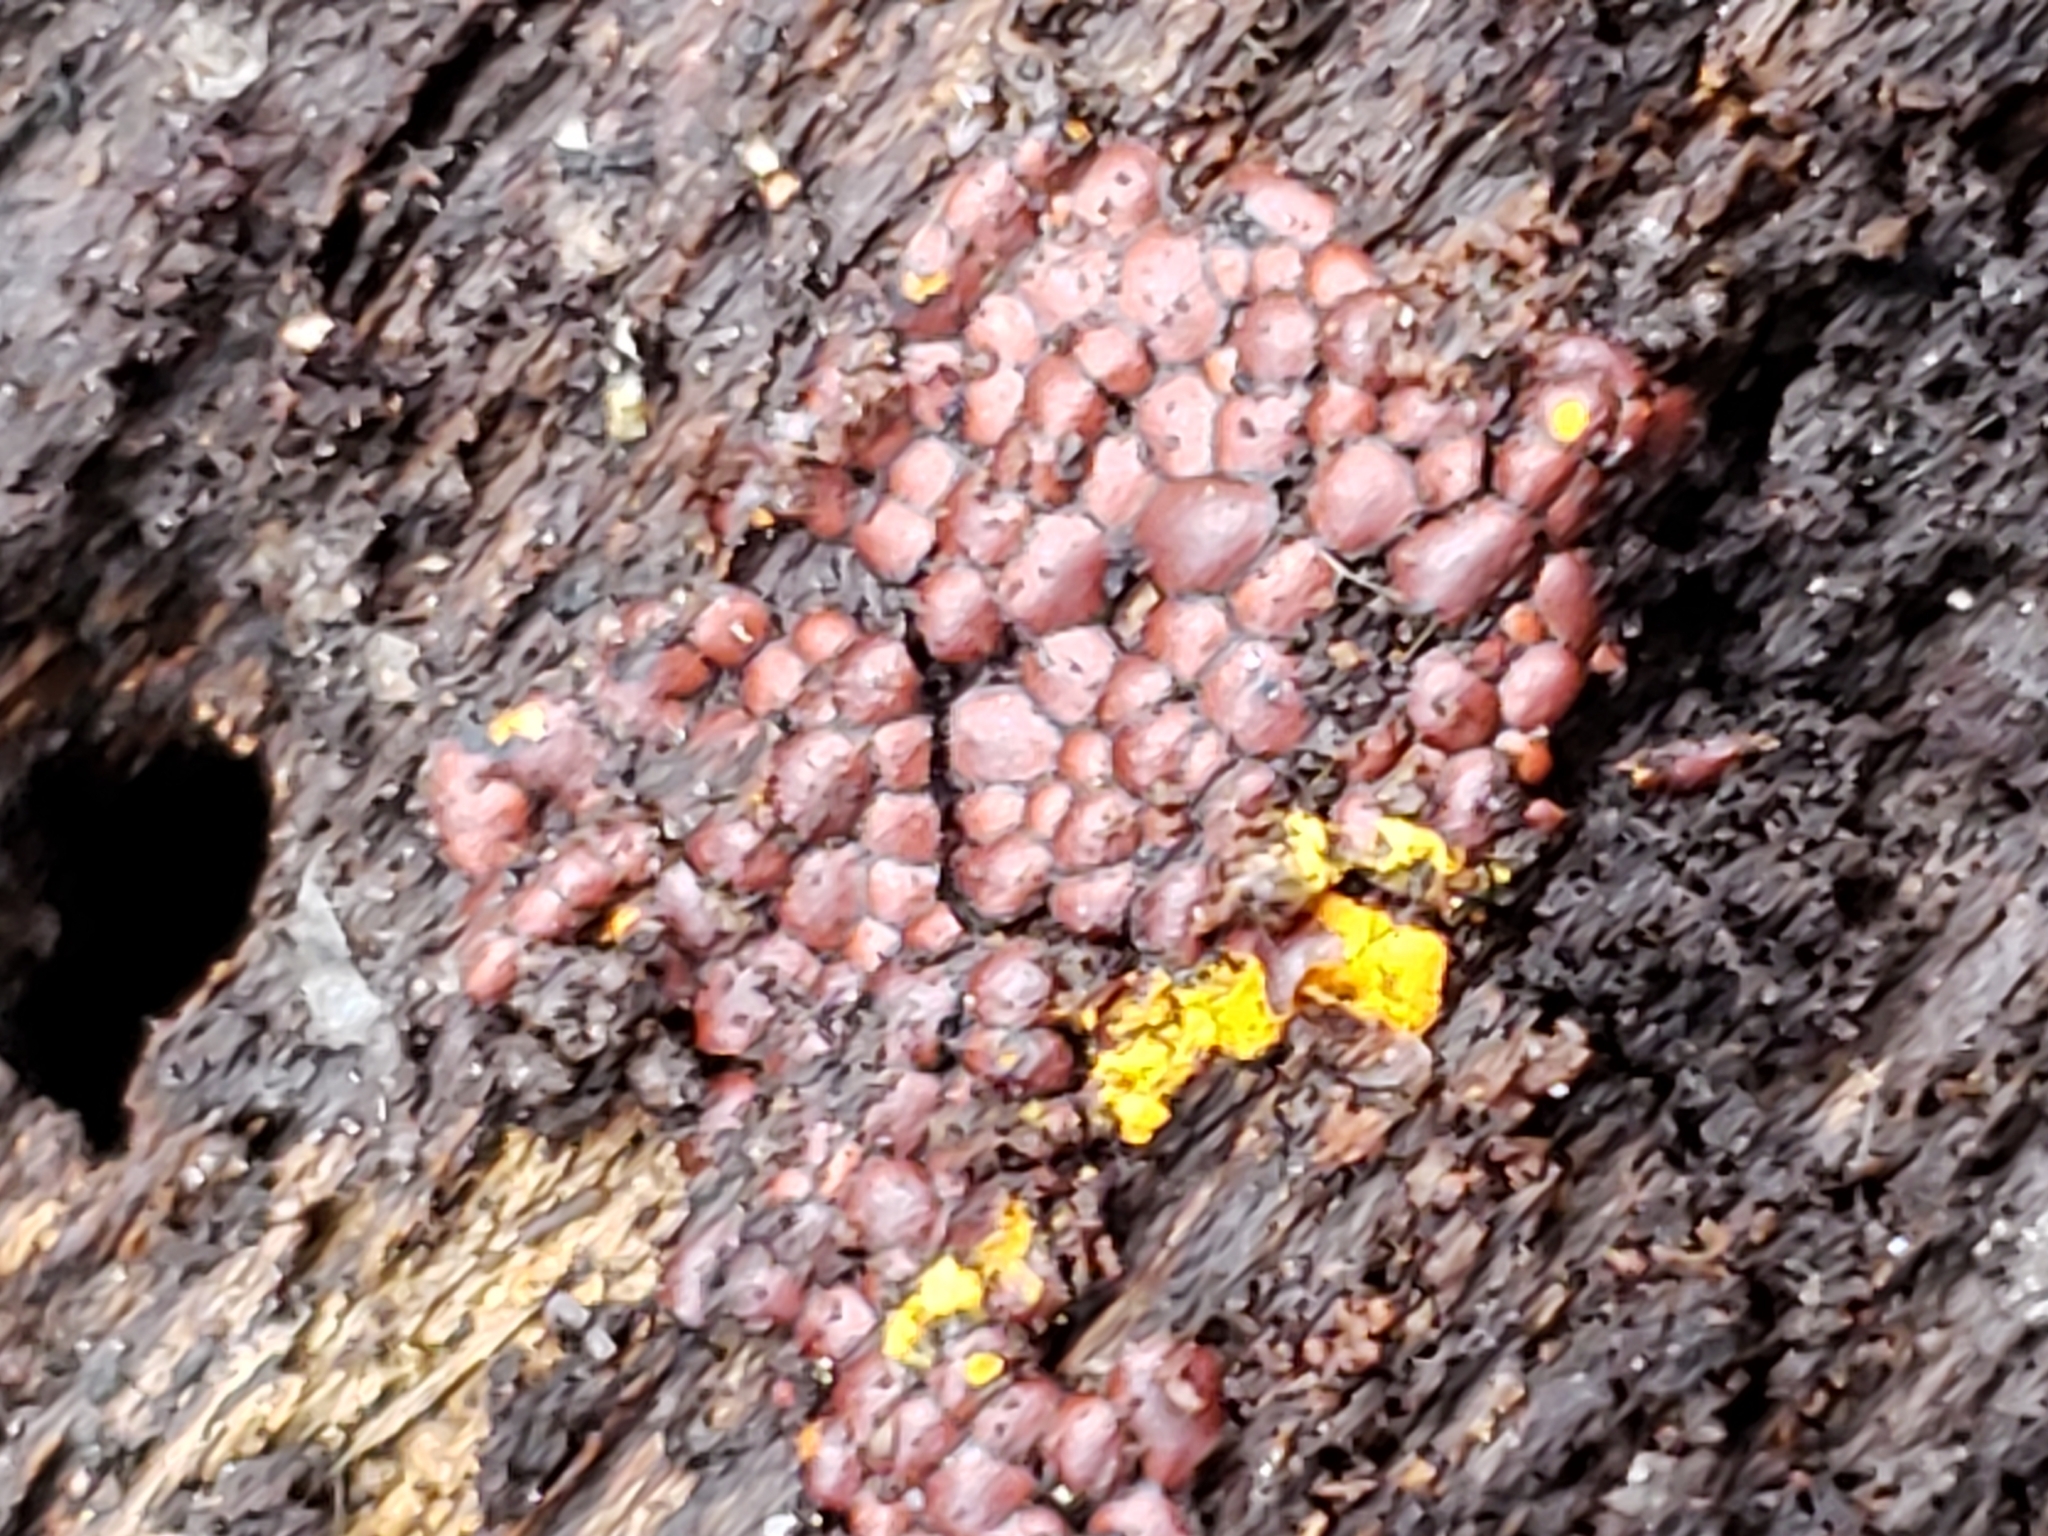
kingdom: Protozoa
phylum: Mycetozoa
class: Myxomycetes
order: Trichiales
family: Trichiaceae
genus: Perichaena
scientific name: Perichaena depressa
